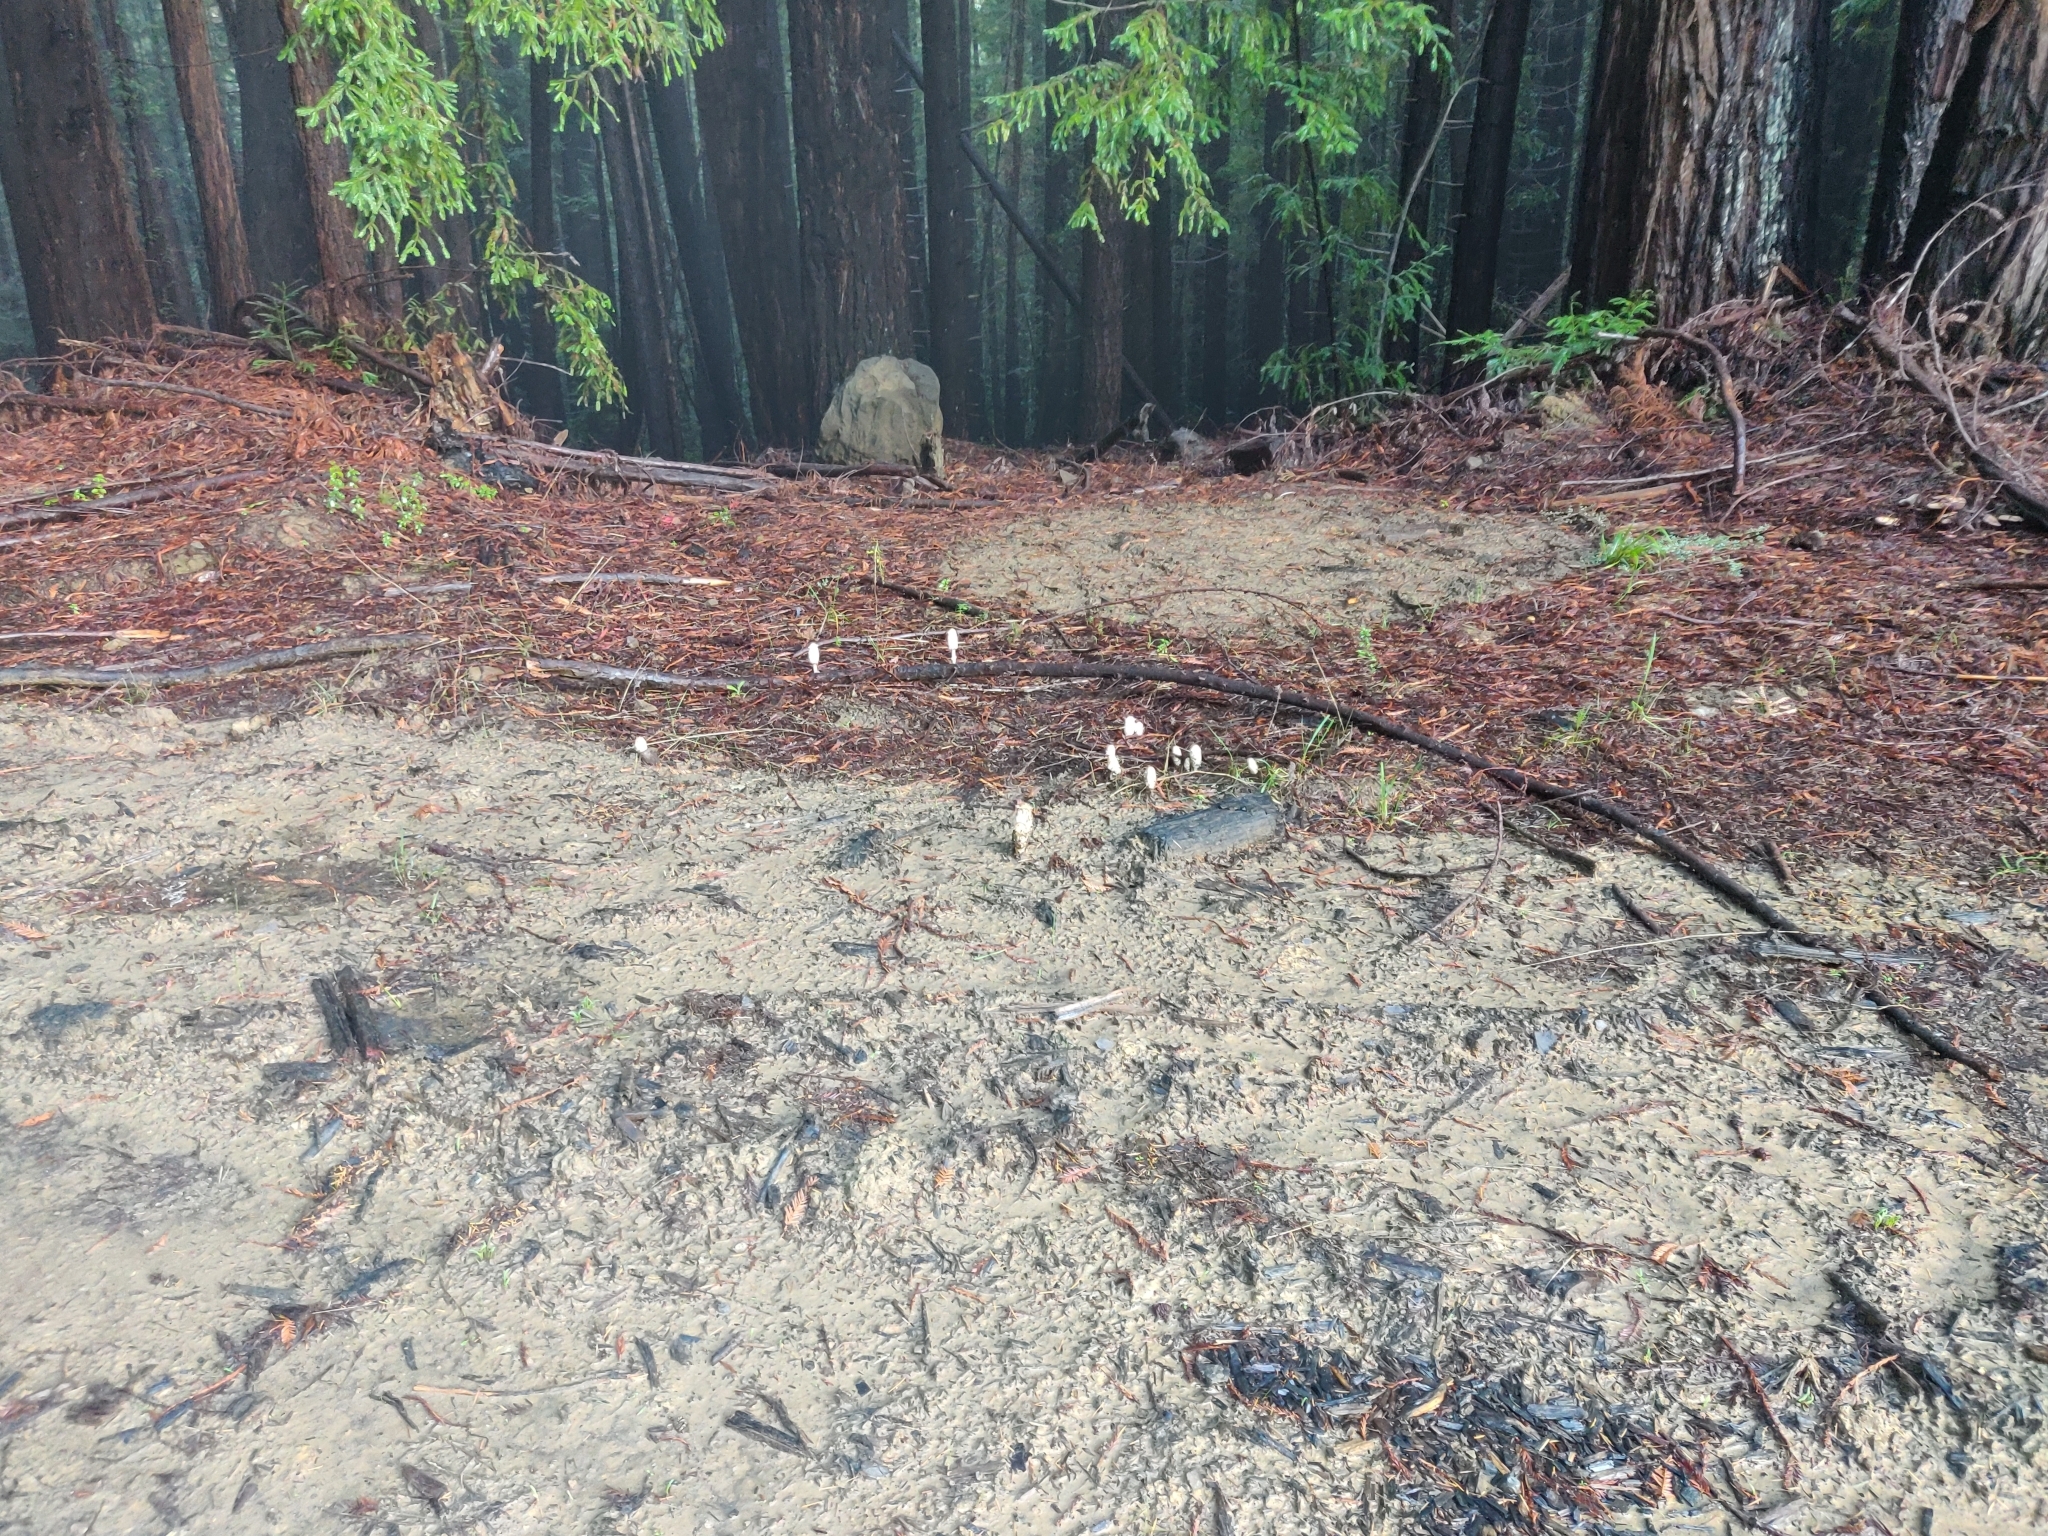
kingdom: Fungi
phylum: Basidiomycota
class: Agaricomycetes
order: Agaricales
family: Agaricaceae
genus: Coprinus
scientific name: Coprinus comatus
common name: Lawyer's wig
